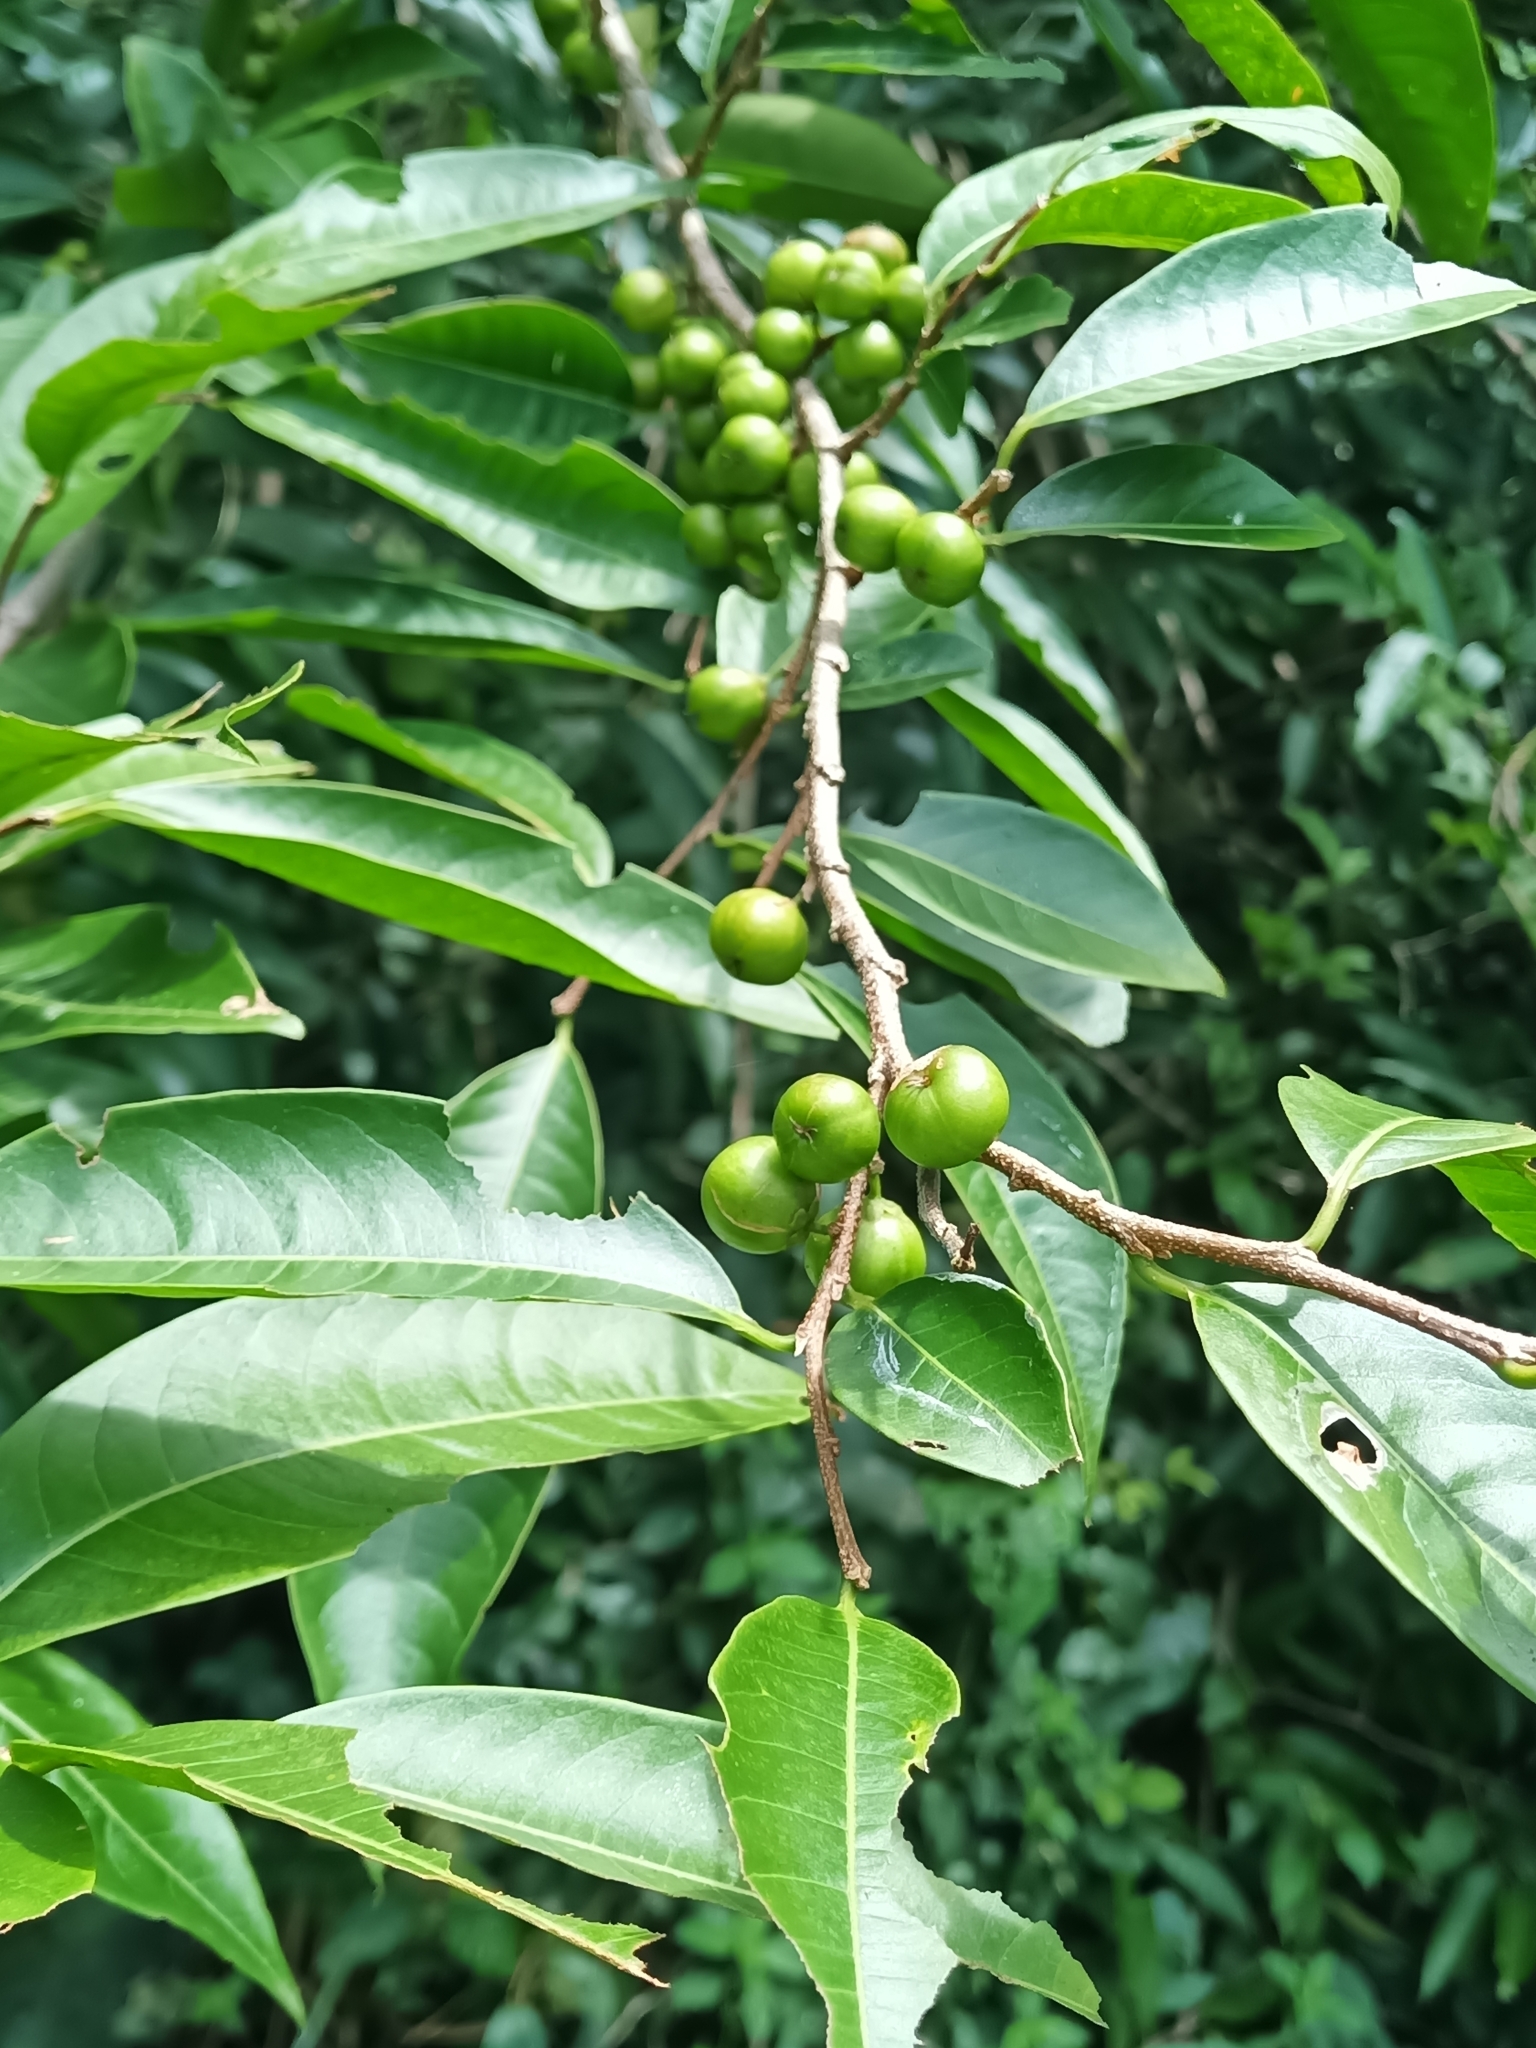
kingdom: Plantae
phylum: Tracheophyta
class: Magnoliopsida
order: Malpighiales
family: Phyllanthaceae
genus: Margaritaria
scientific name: Margaritaria nobilis
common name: Goose berry
